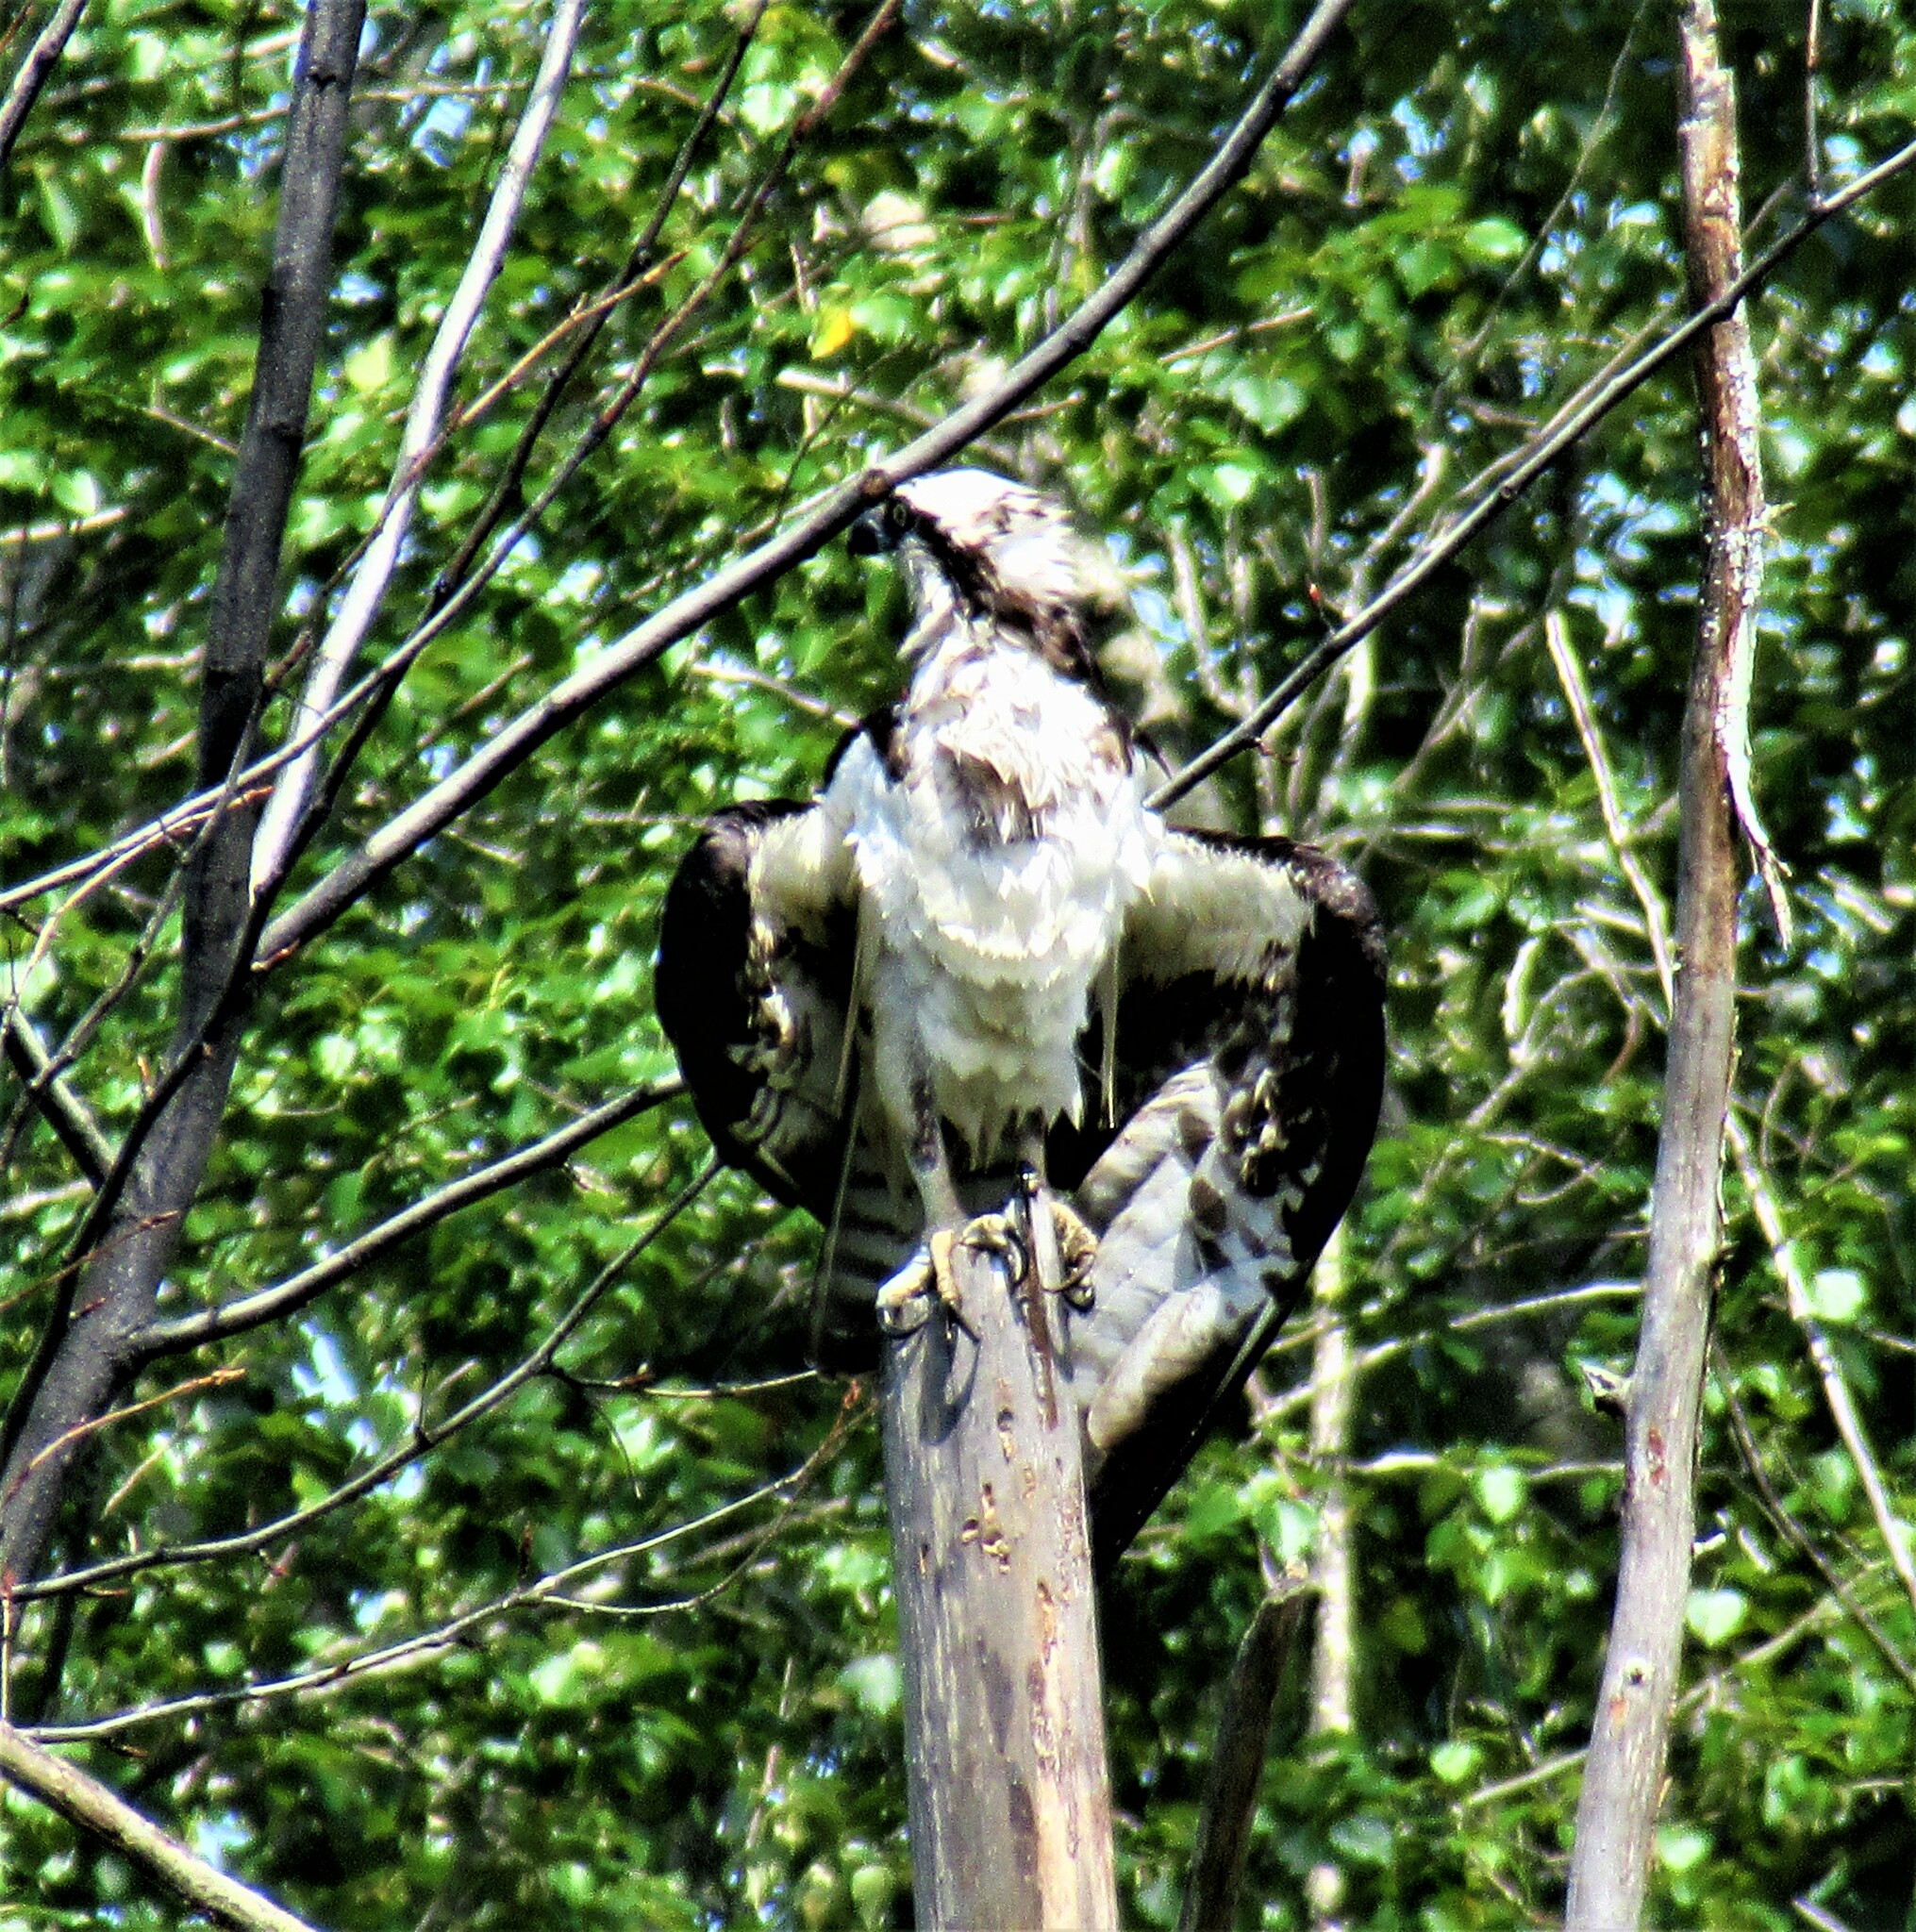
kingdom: Animalia
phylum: Chordata
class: Aves
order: Accipitriformes
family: Pandionidae
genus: Pandion
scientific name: Pandion haliaetus
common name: Osprey
